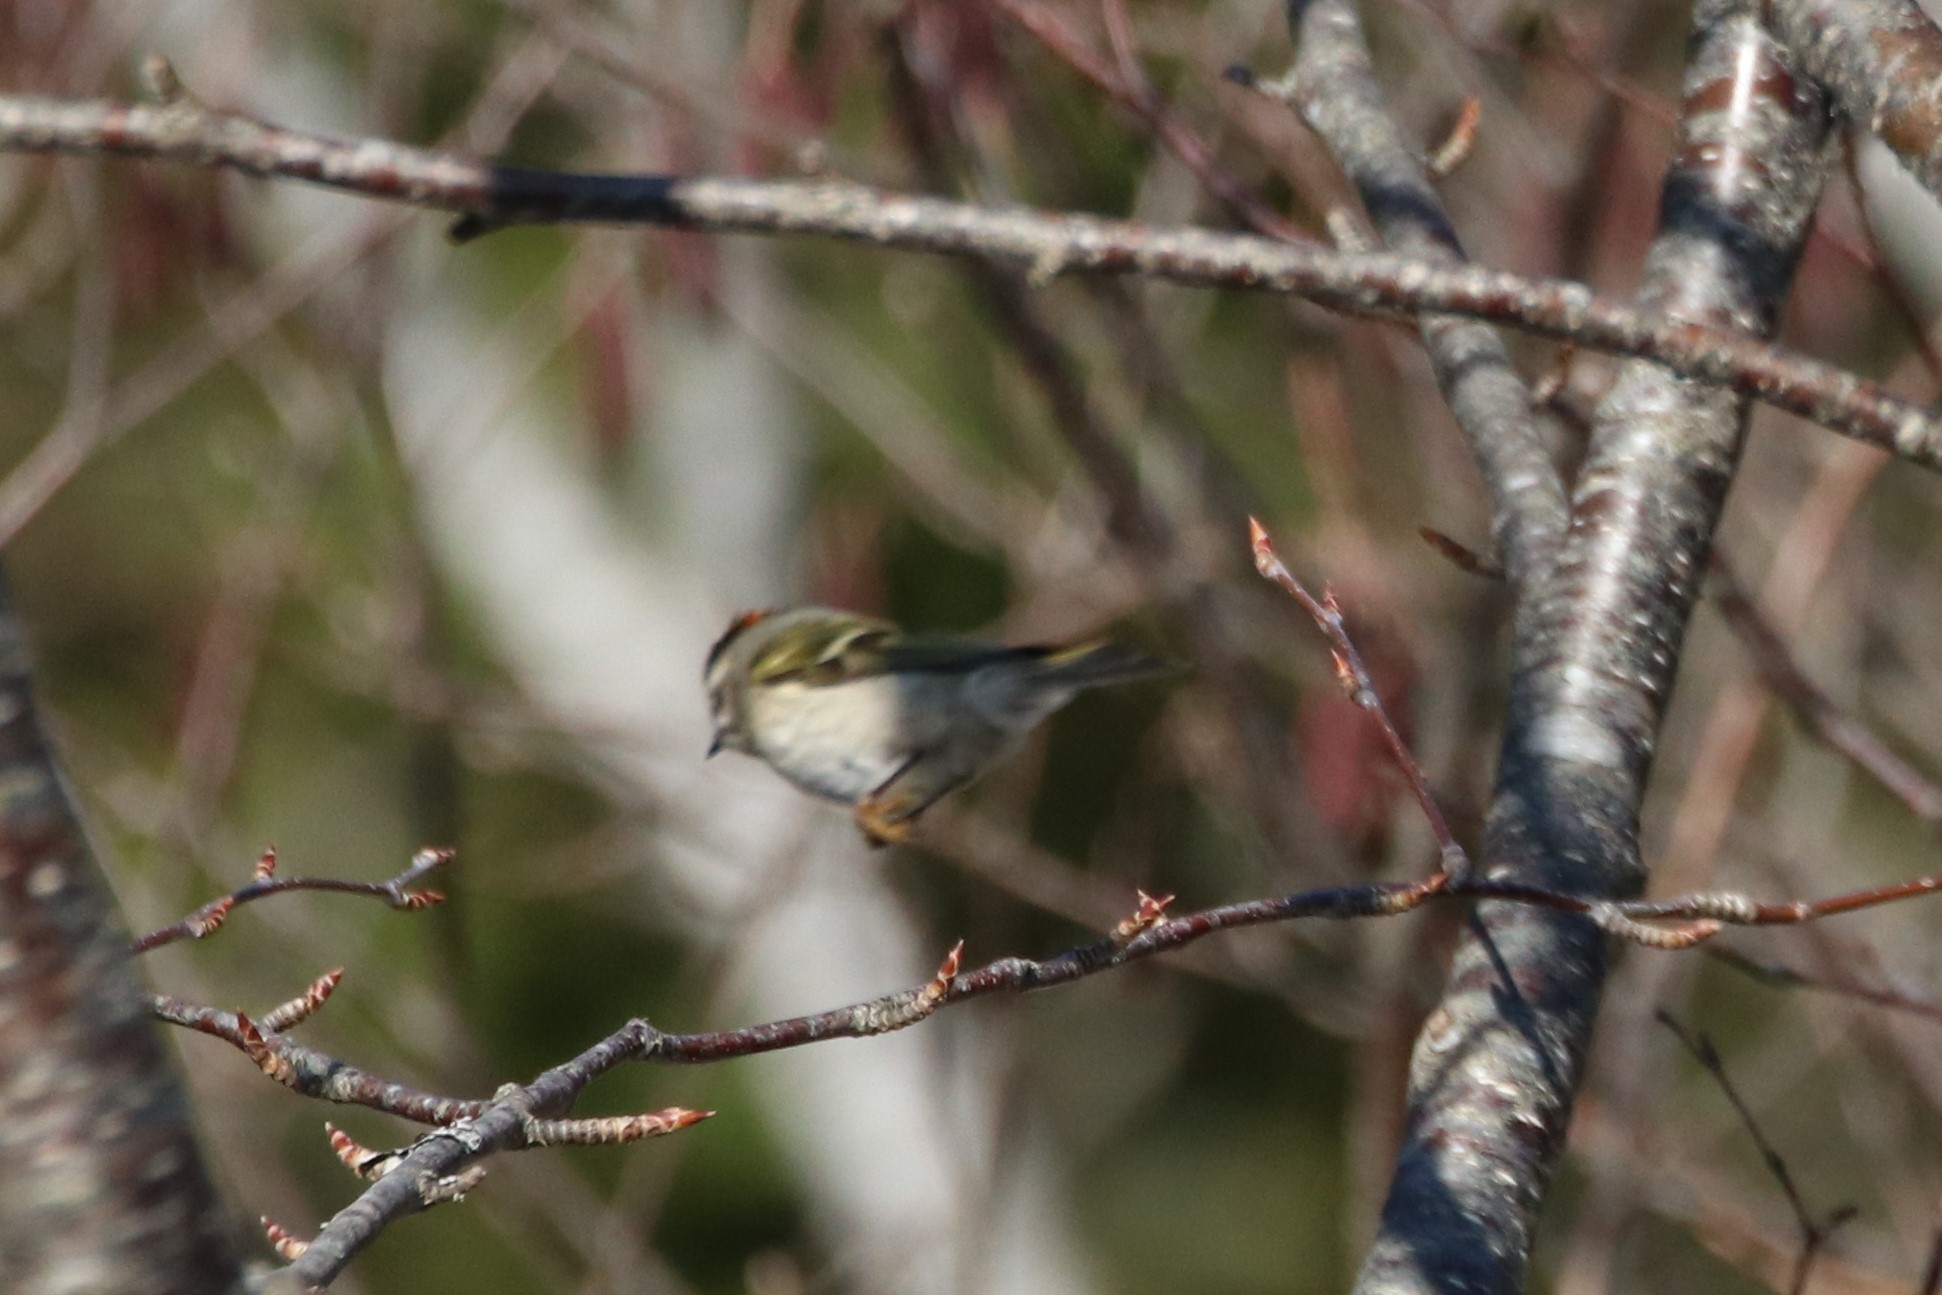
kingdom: Animalia
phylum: Chordata
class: Aves
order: Passeriformes
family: Regulidae
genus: Regulus
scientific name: Regulus satrapa
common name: Golden-crowned kinglet
